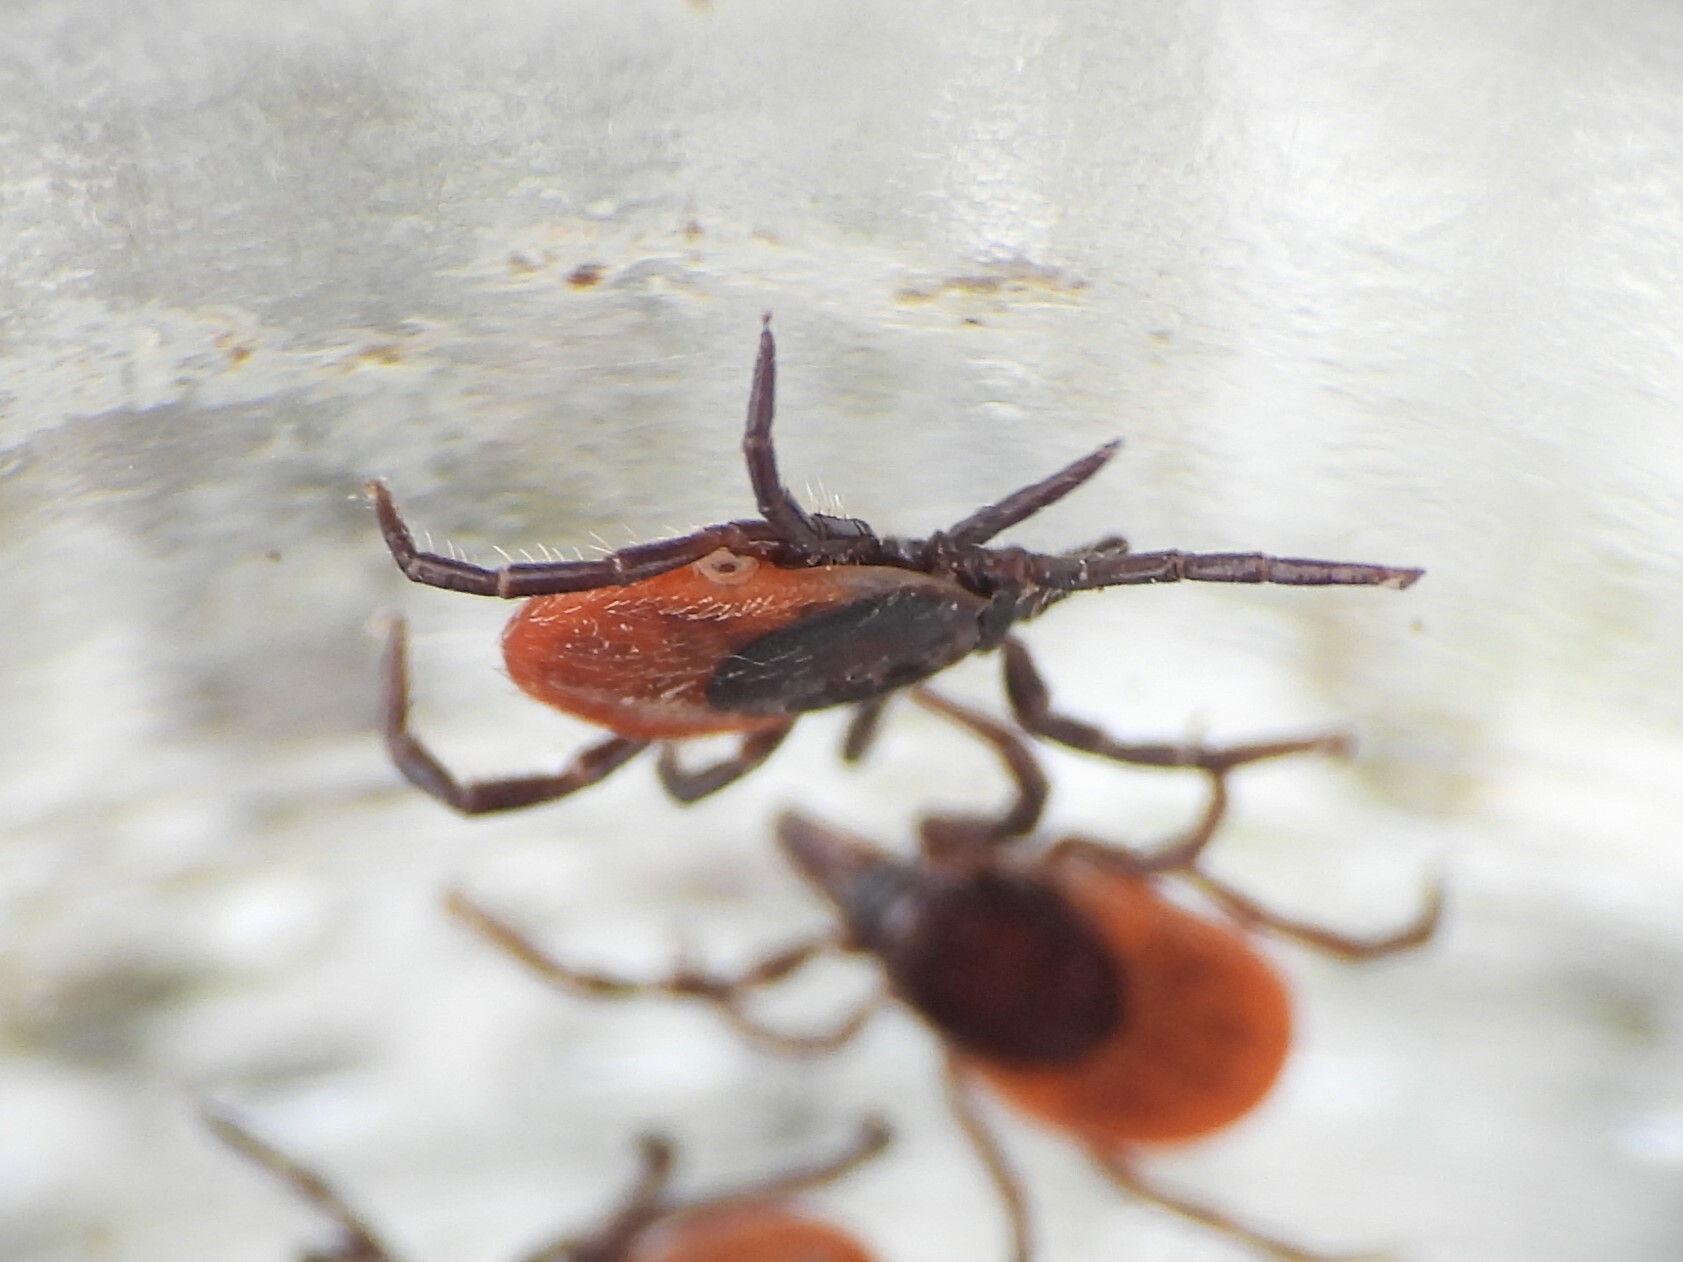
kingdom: Animalia
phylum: Arthropoda
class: Arachnida
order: Ixodida
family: Ixodidae
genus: Ixodes
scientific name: Ixodes ricinus
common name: Castor bean tick
